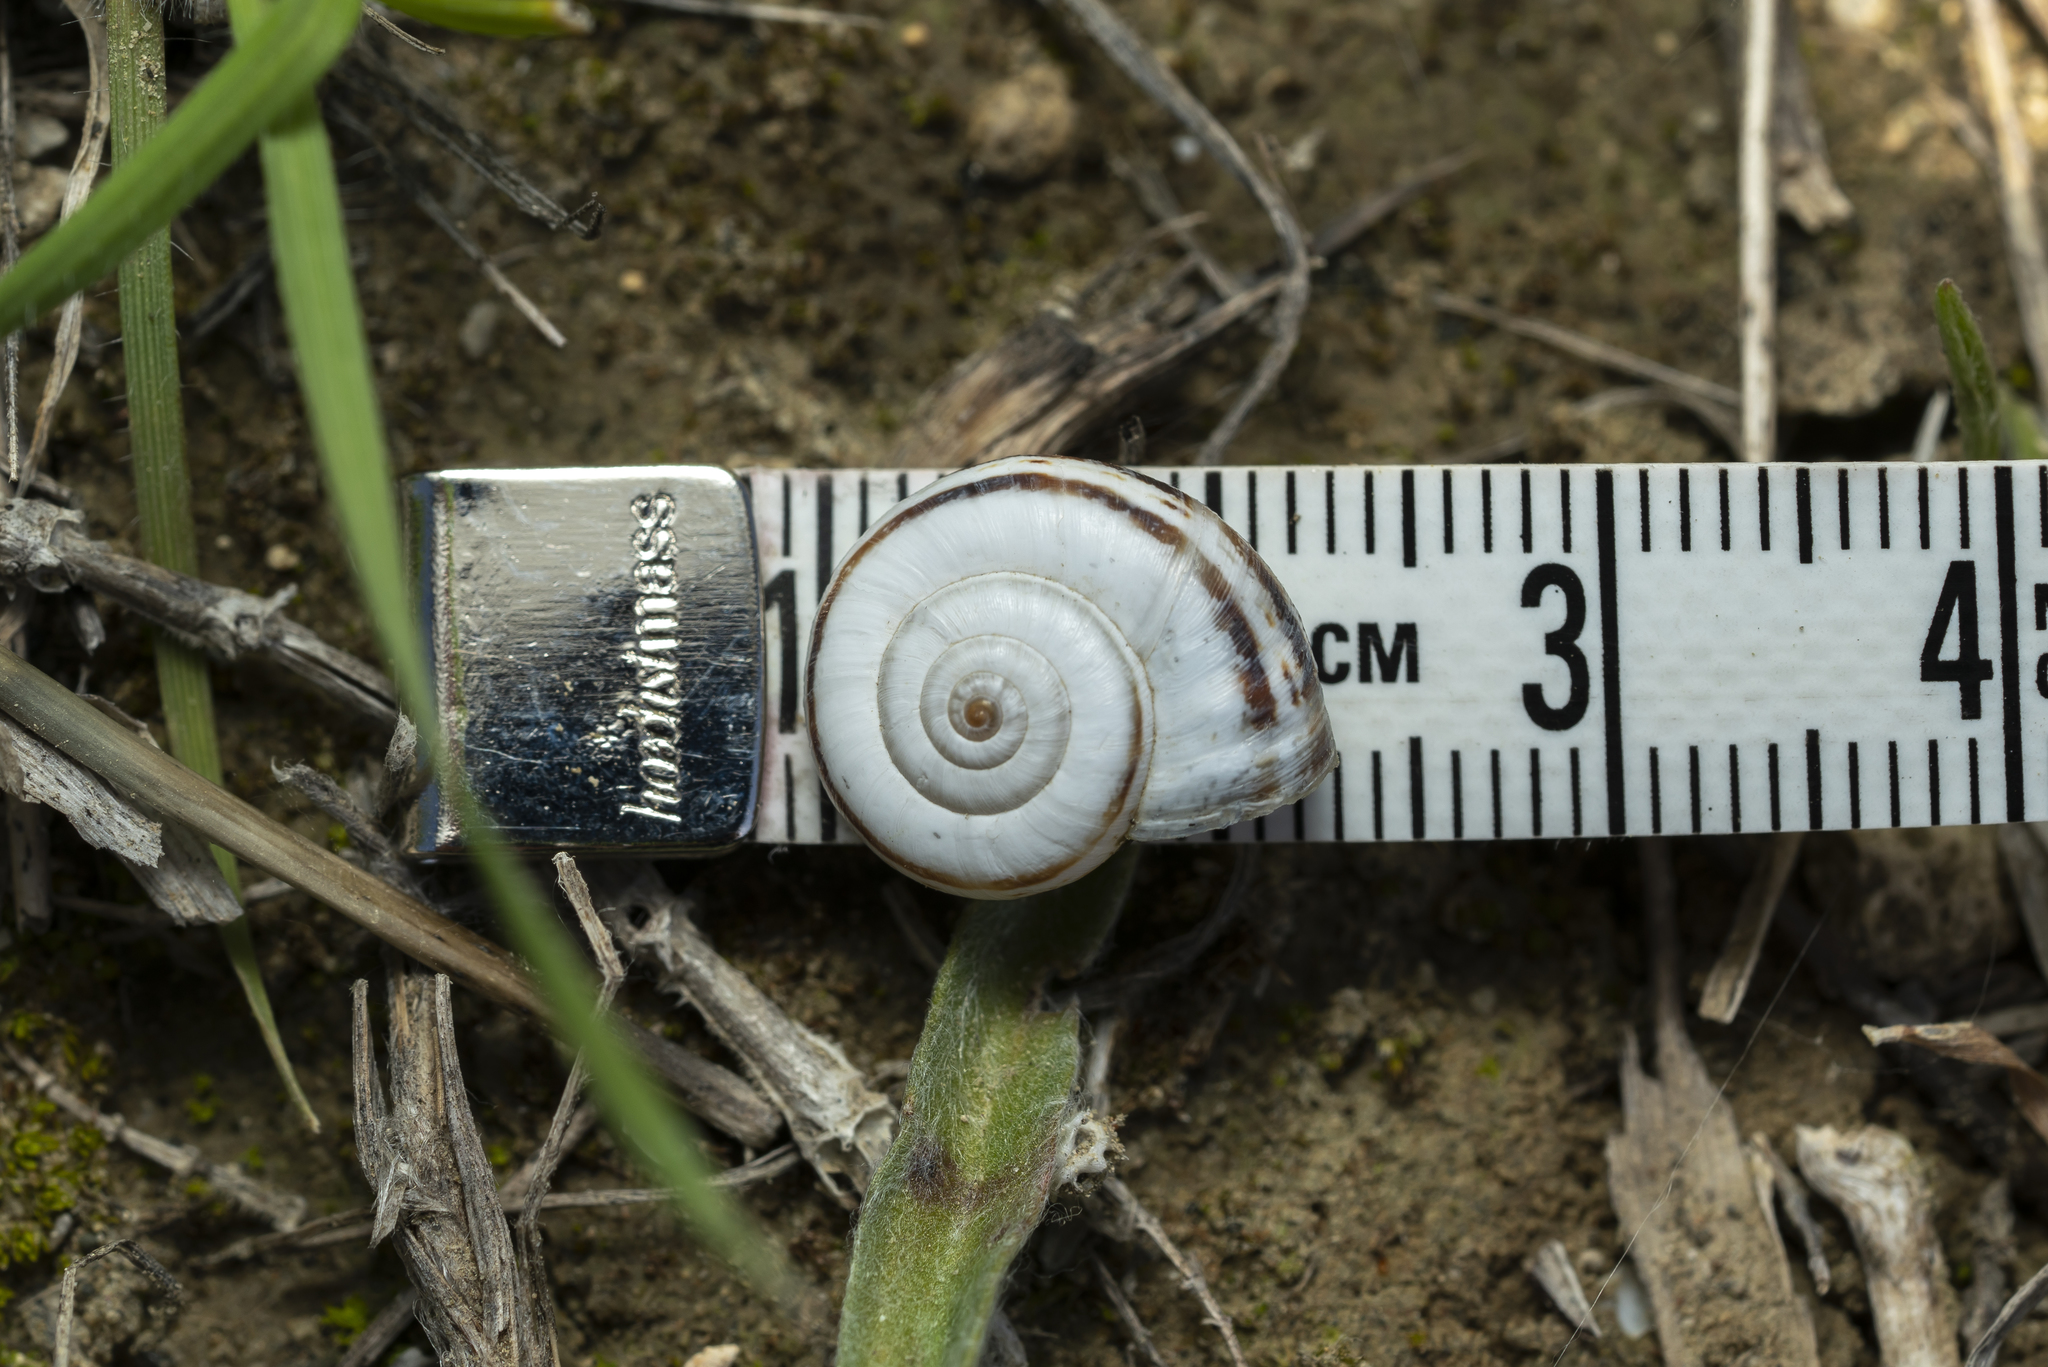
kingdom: Animalia
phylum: Mollusca
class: Gastropoda
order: Stylommatophora
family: Geomitridae
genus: Xeropicta
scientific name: Xeropicta krynickii
